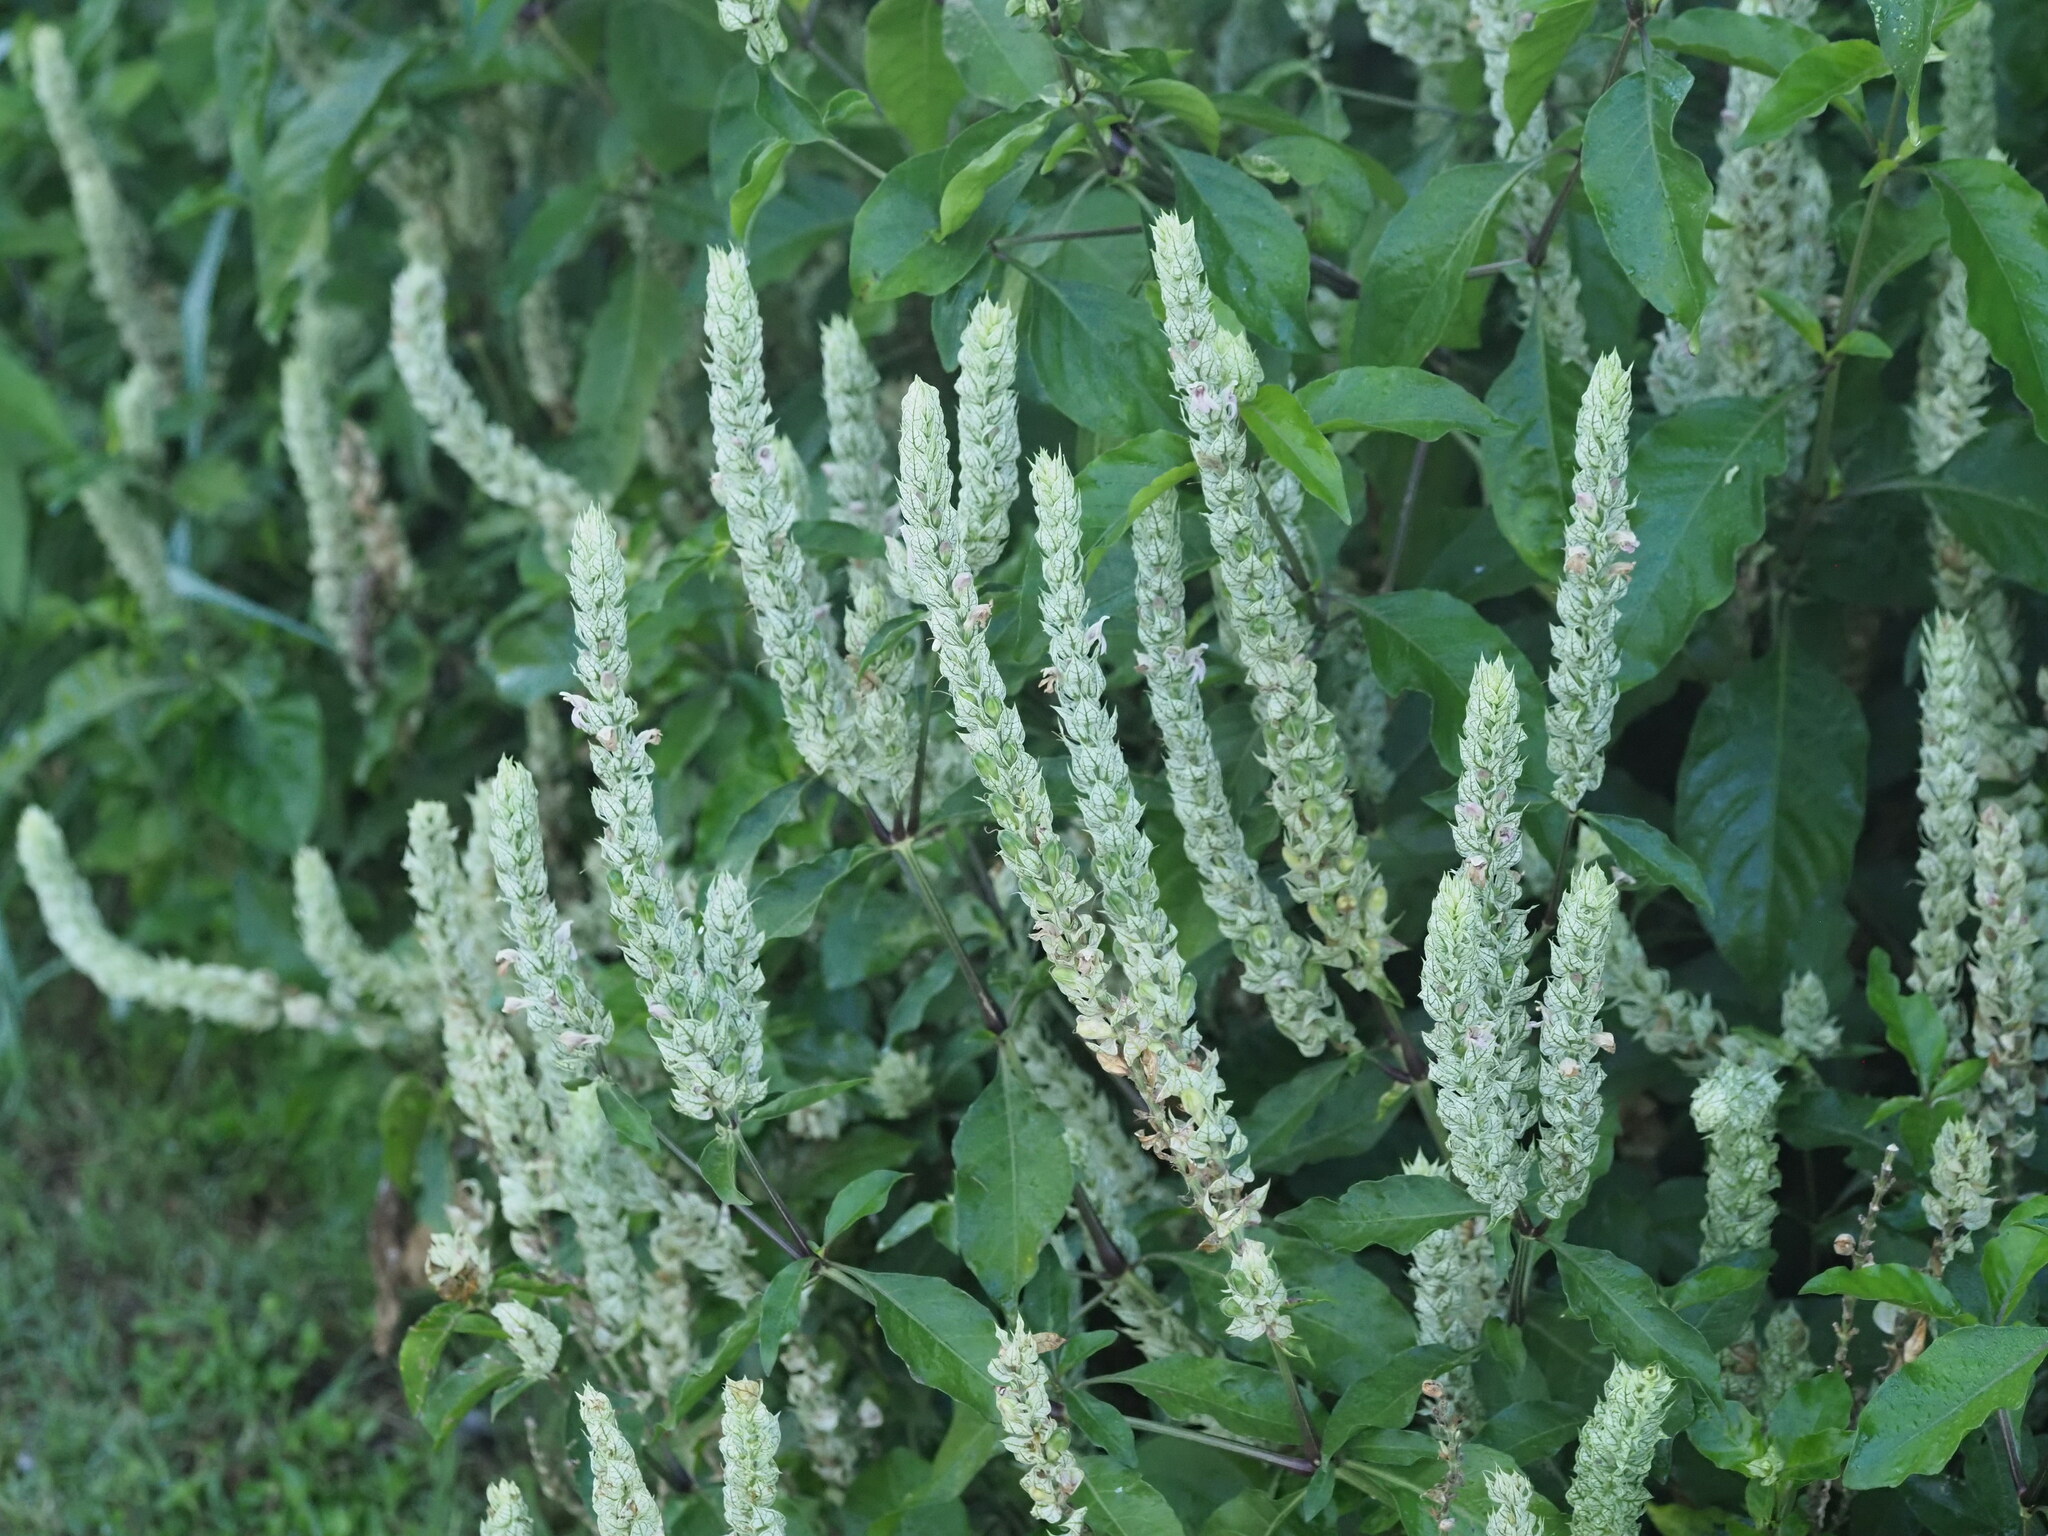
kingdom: Plantae
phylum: Tracheophyta
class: Magnoliopsida
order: Lamiales
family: Acanthaceae
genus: Justicia
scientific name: Justicia betonica
